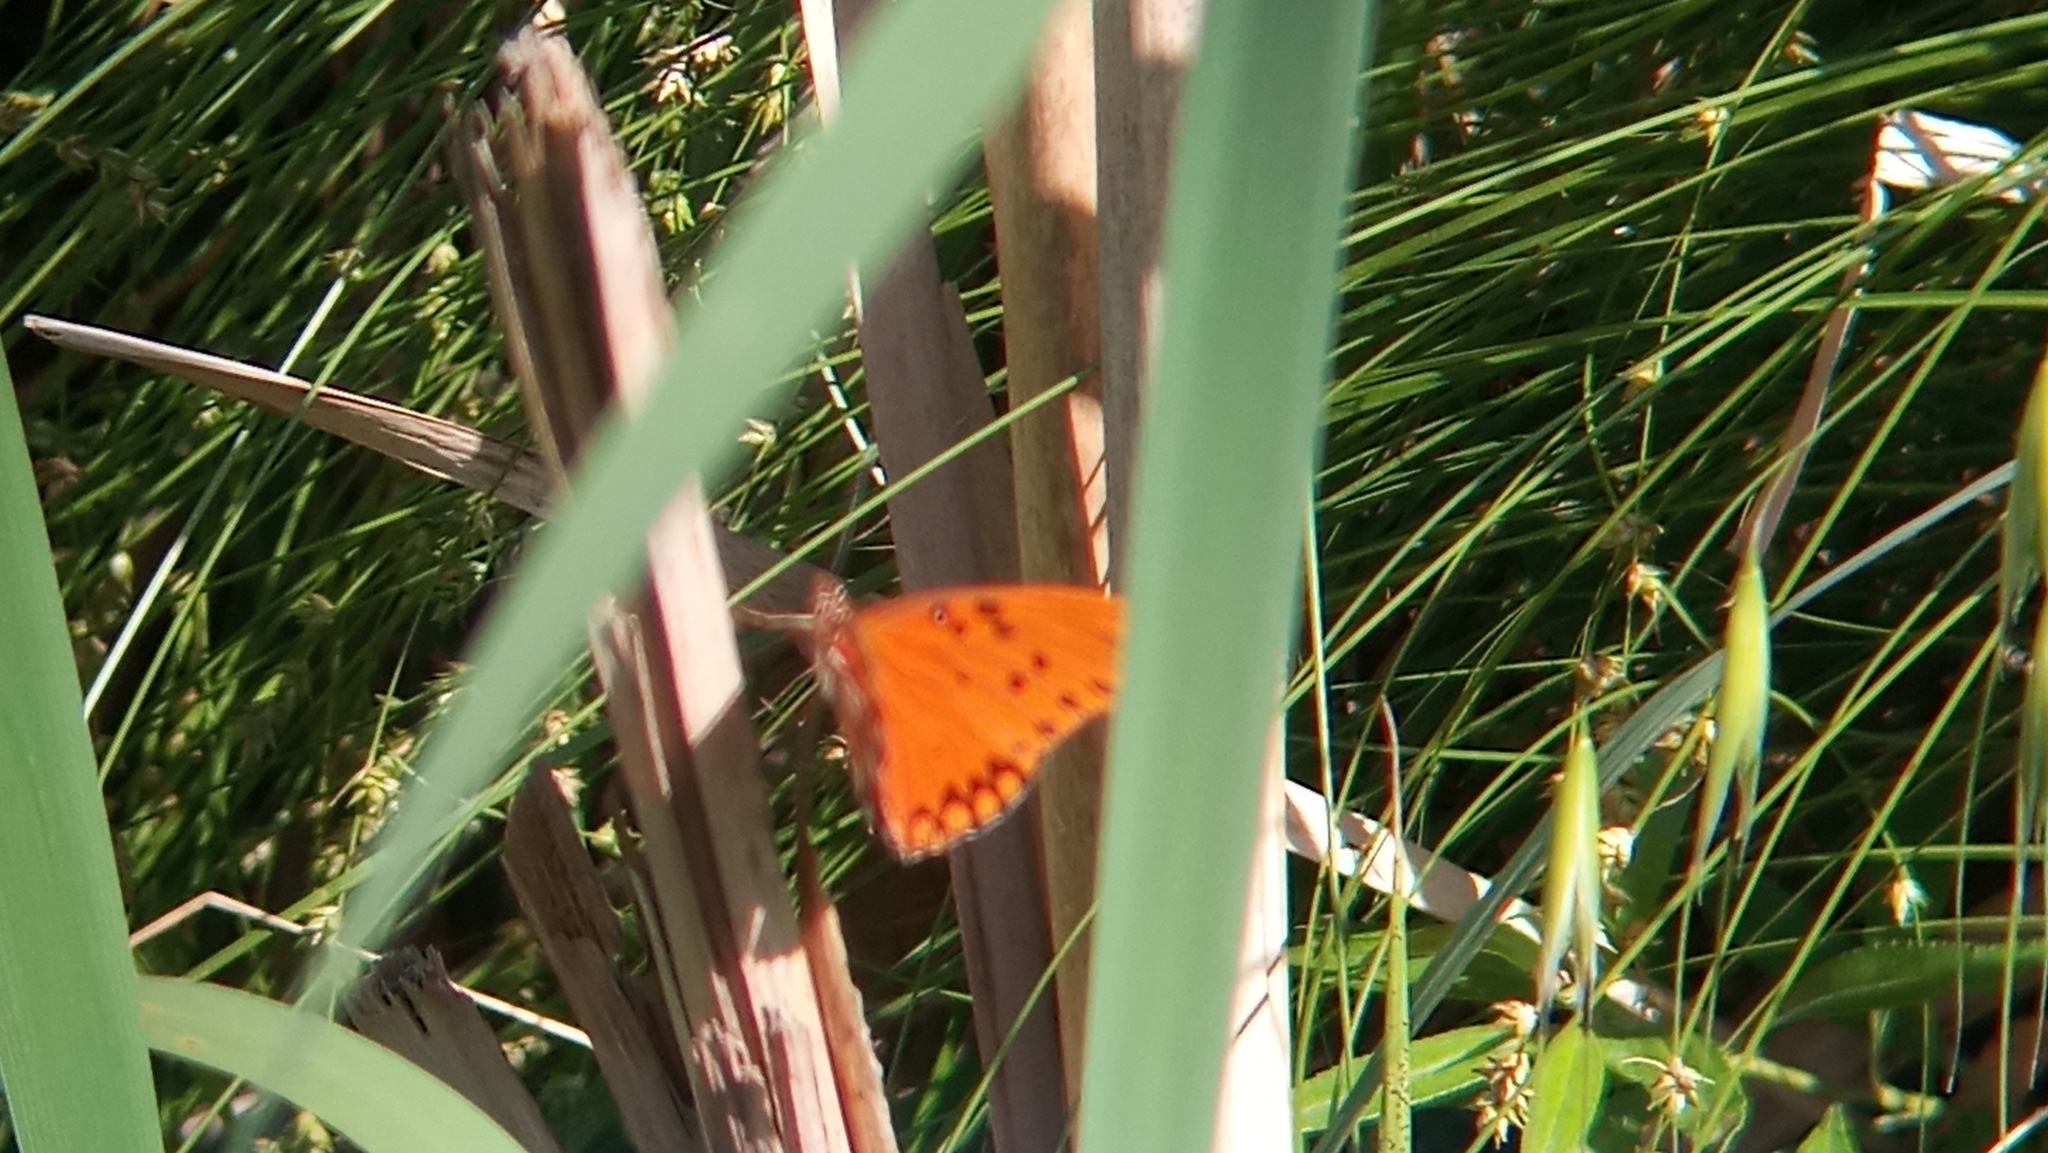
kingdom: Animalia
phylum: Arthropoda
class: Insecta
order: Lepidoptera
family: Nymphalidae
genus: Dione
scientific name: Dione vanillae
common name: Gulf fritillary
